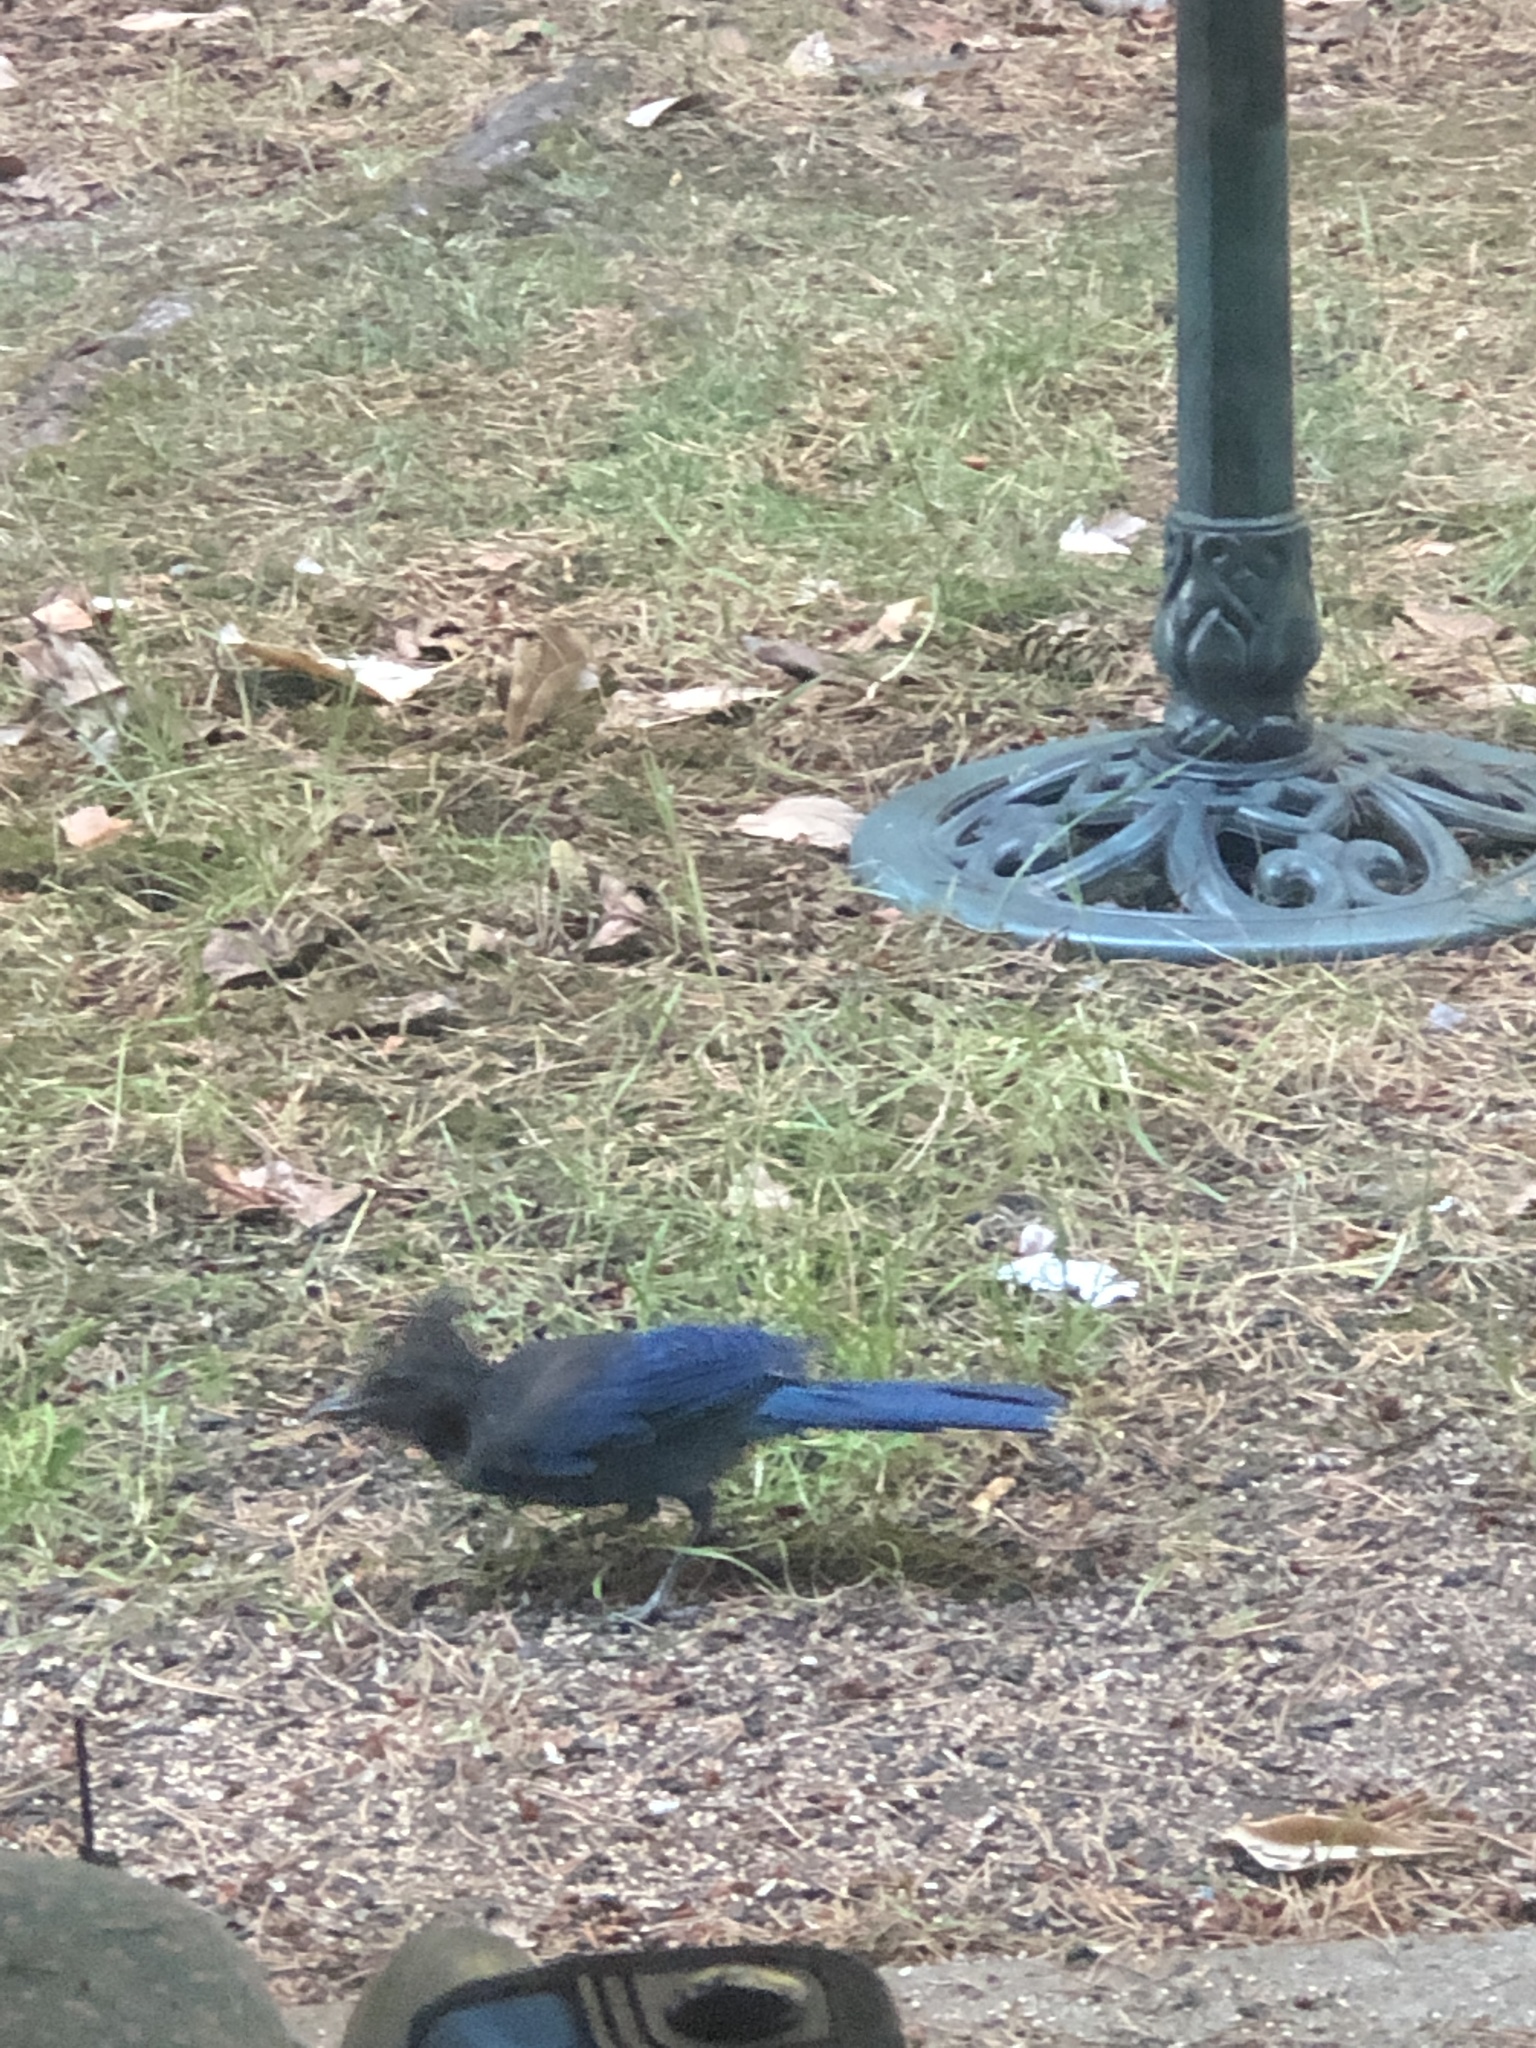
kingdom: Animalia
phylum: Chordata
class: Aves
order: Passeriformes
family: Corvidae
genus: Cyanocitta
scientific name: Cyanocitta stelleri
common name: Steller's jay
